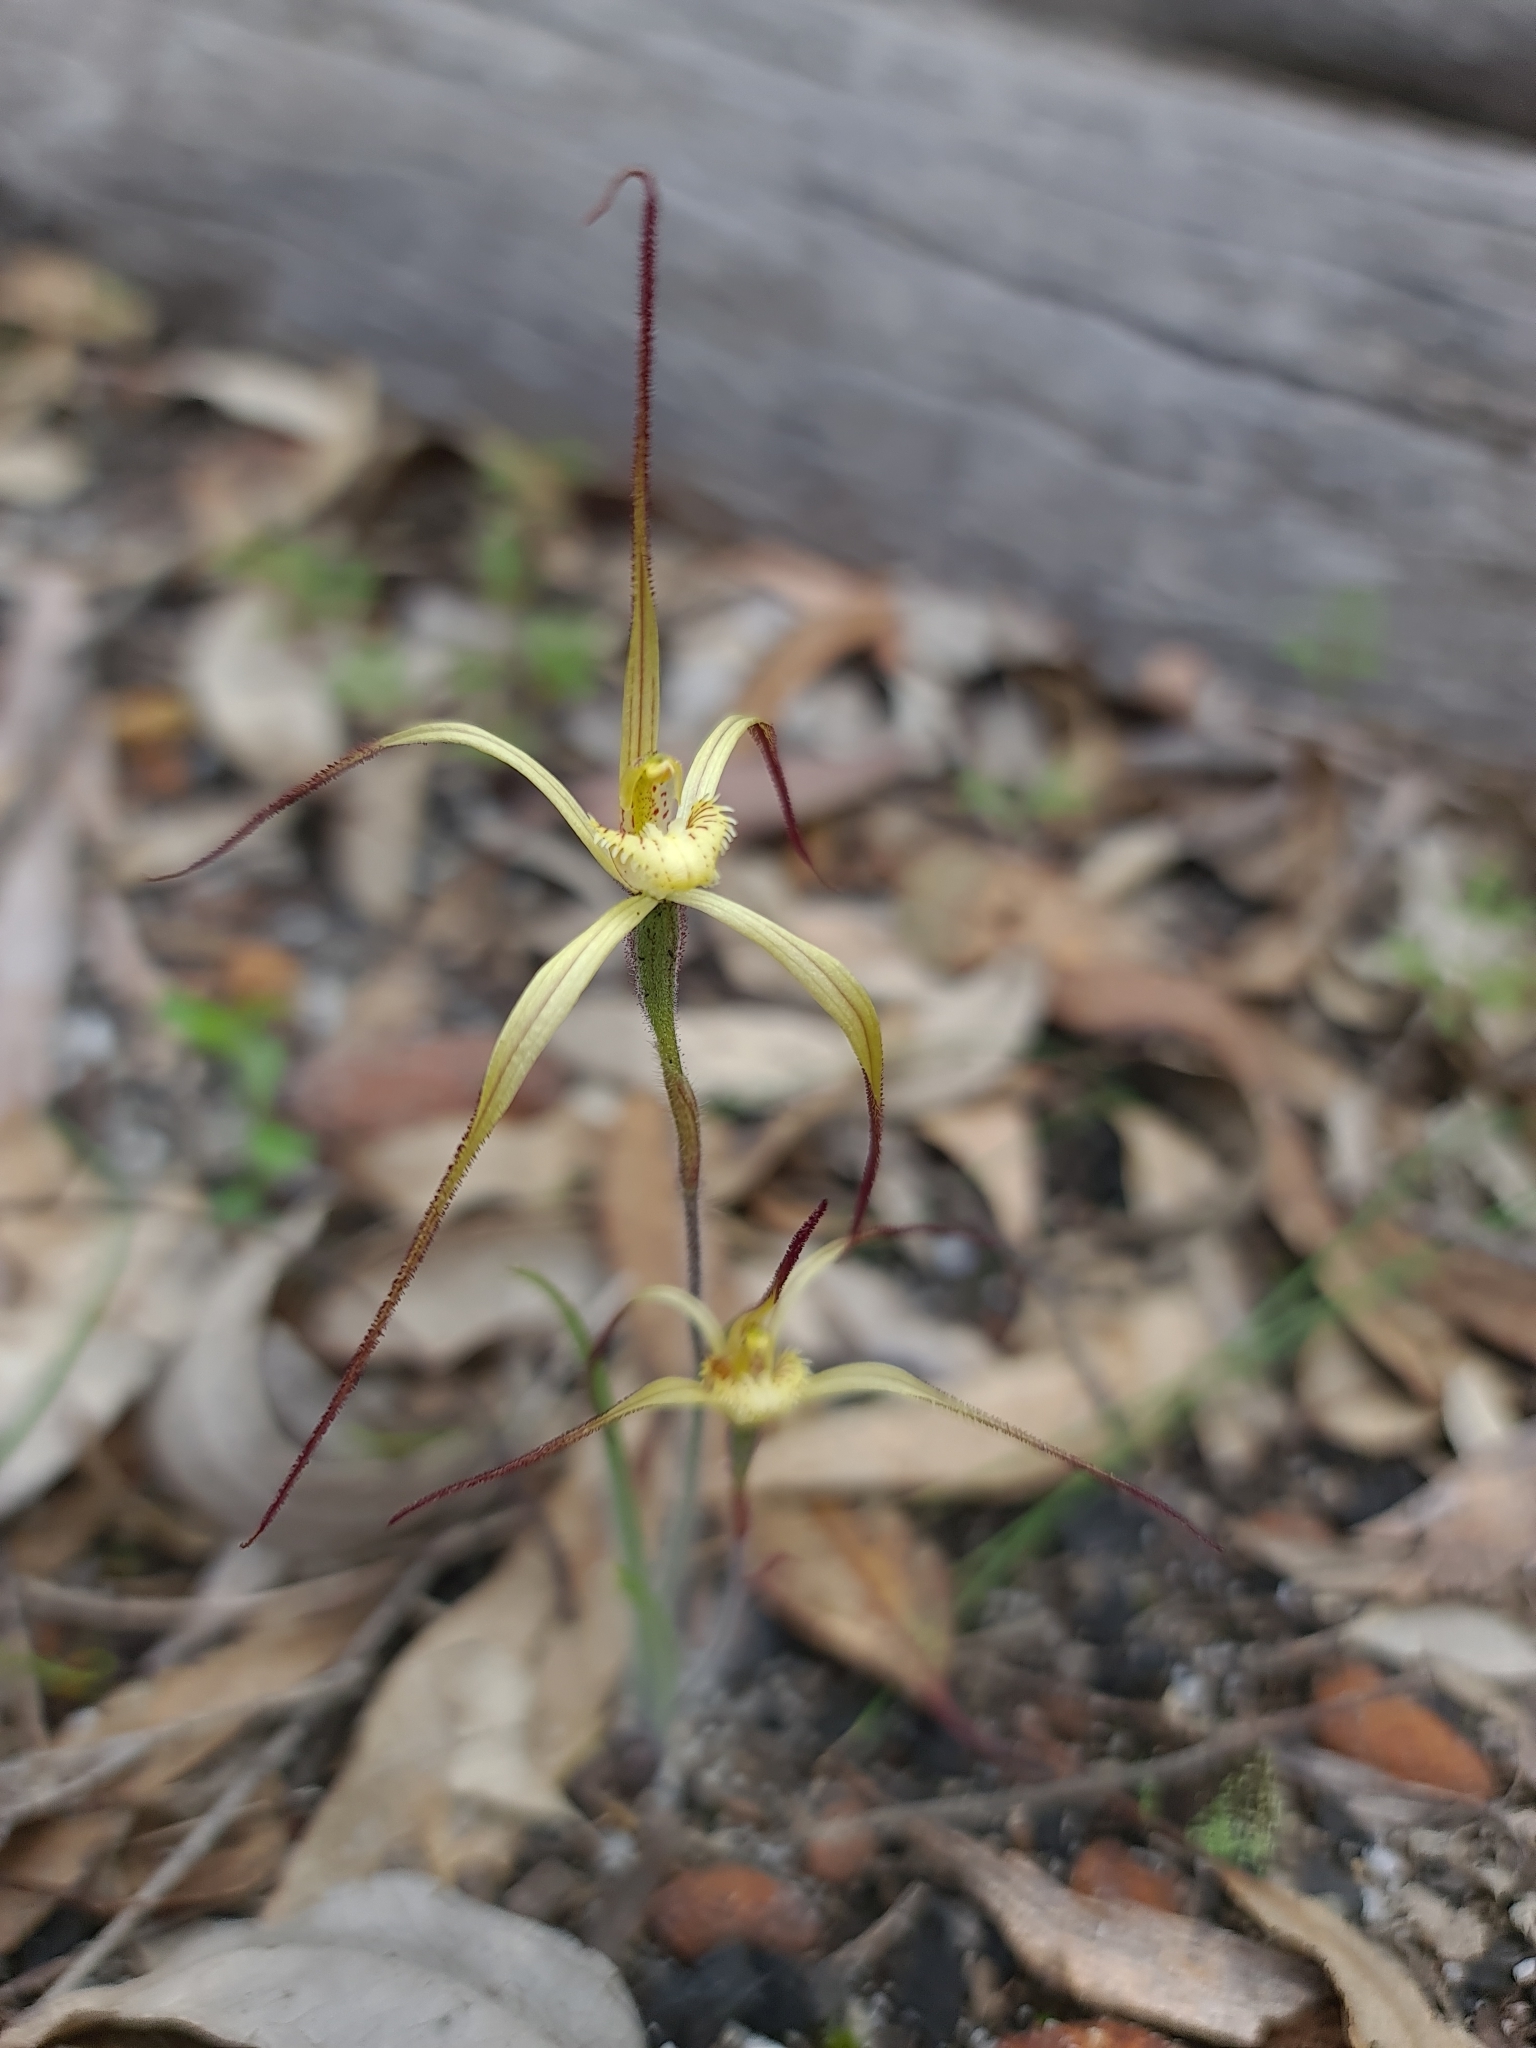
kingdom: Plantae
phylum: Tracheophyta
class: Liliopsida
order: Asparagales
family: Orchidaceae
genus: Caladenia
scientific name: Caladenia xantha
